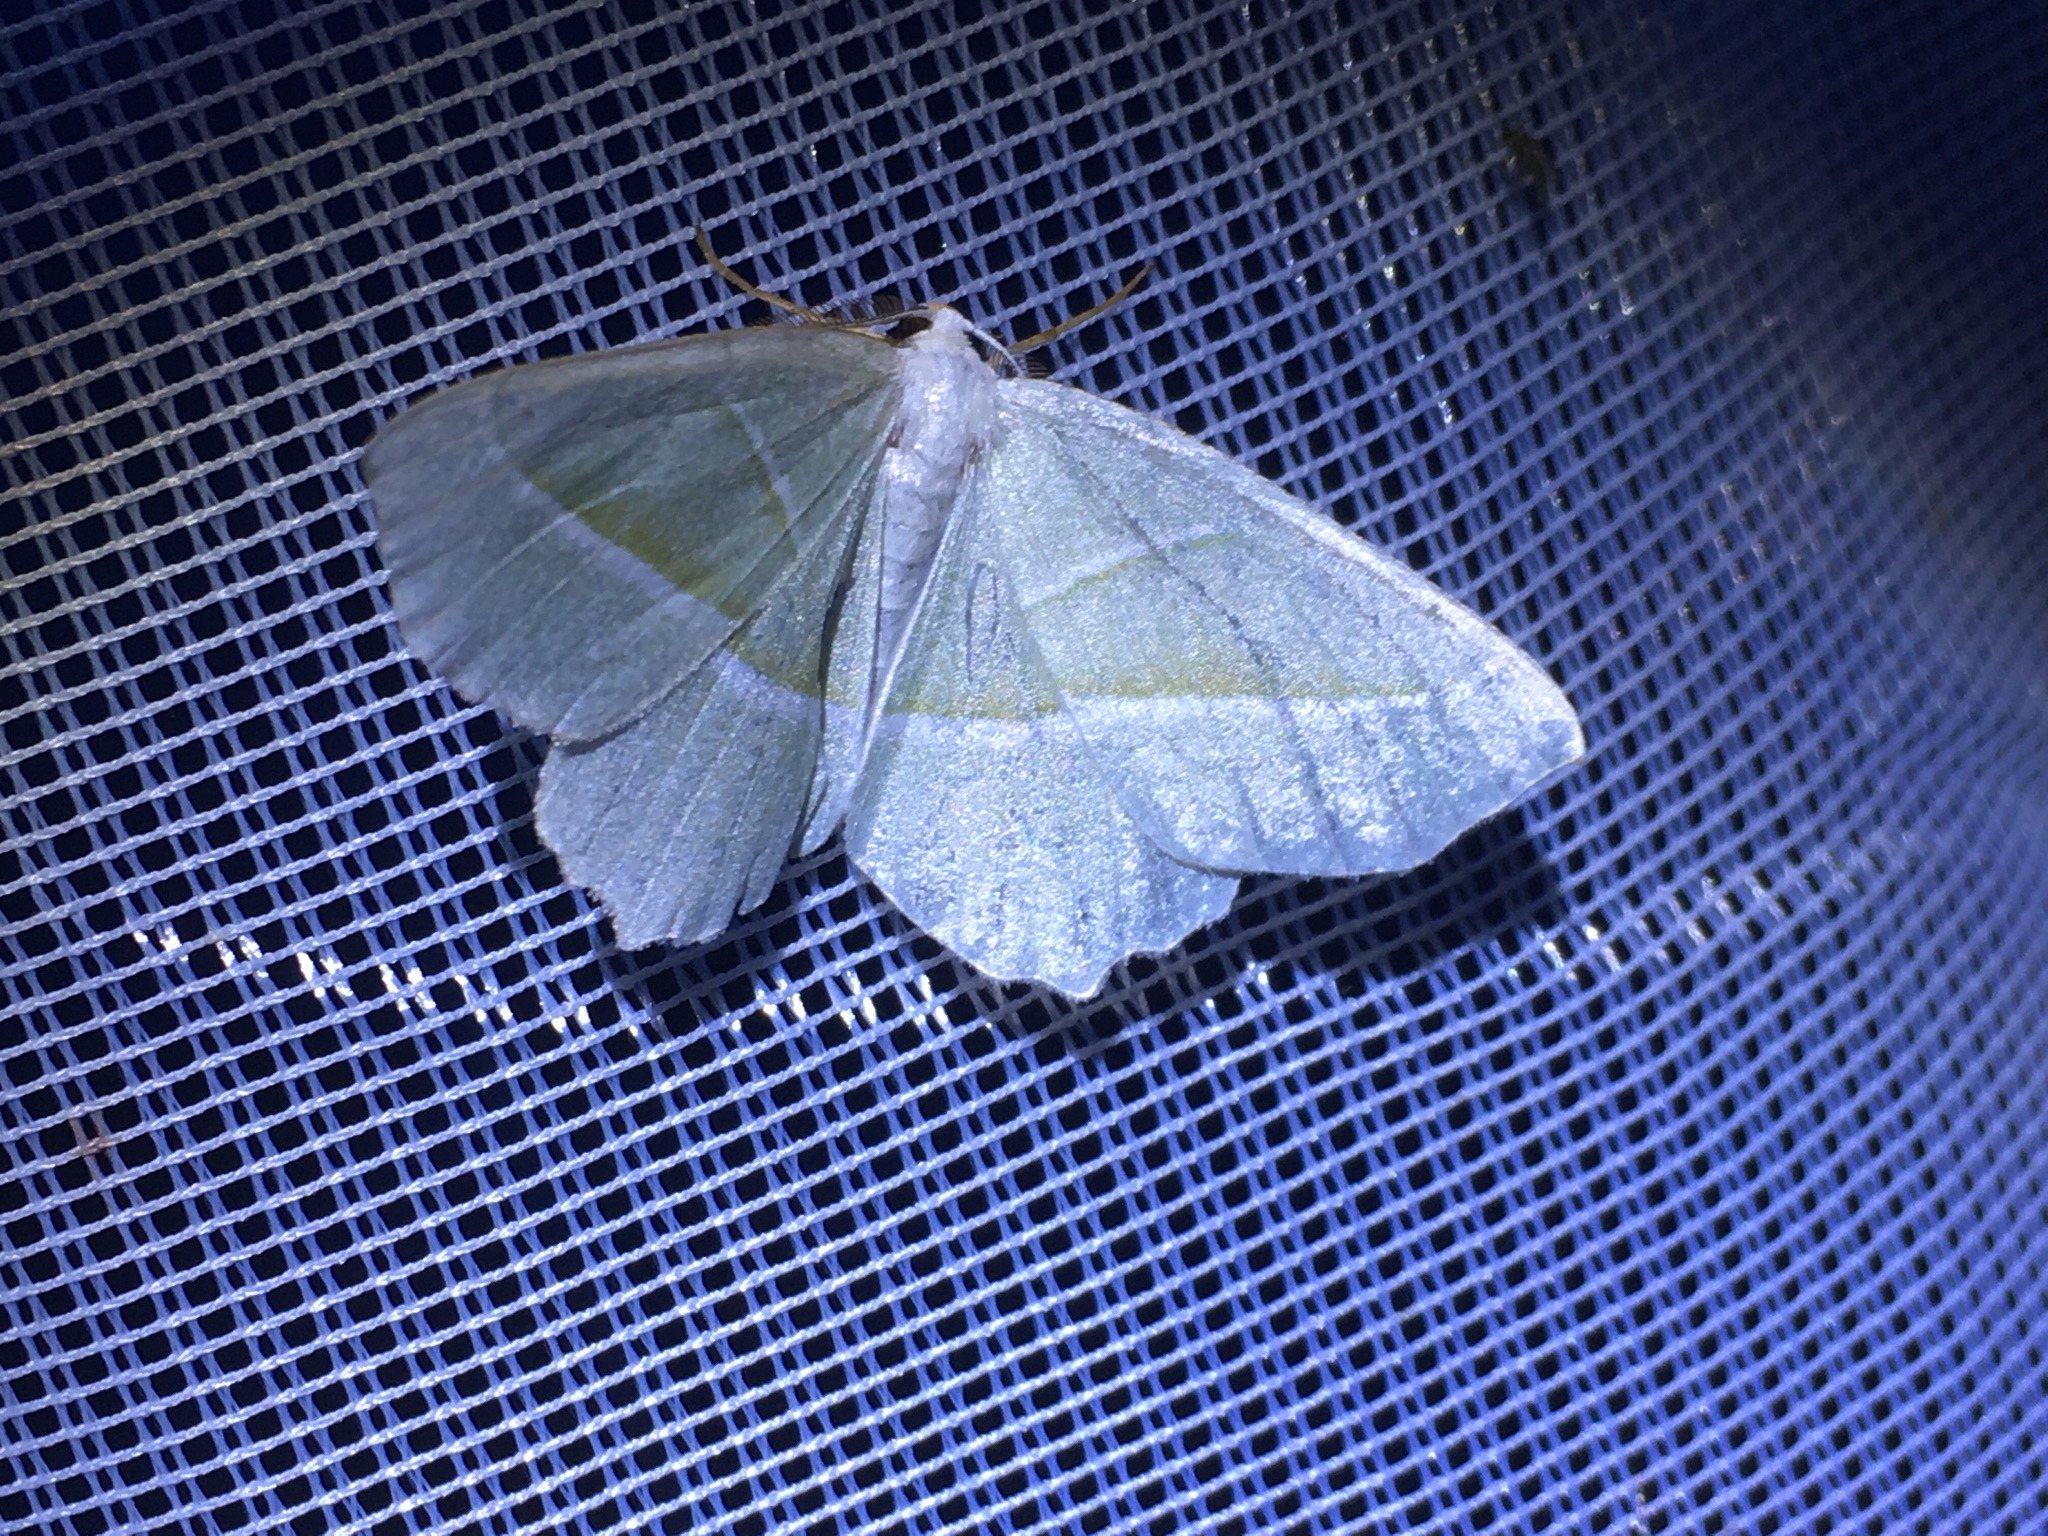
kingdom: Animalia
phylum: Arthropoda
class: Insecta
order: Lepidoptera
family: Geometridae
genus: Campaea
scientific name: Campaea margaritaria
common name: Light emerald
